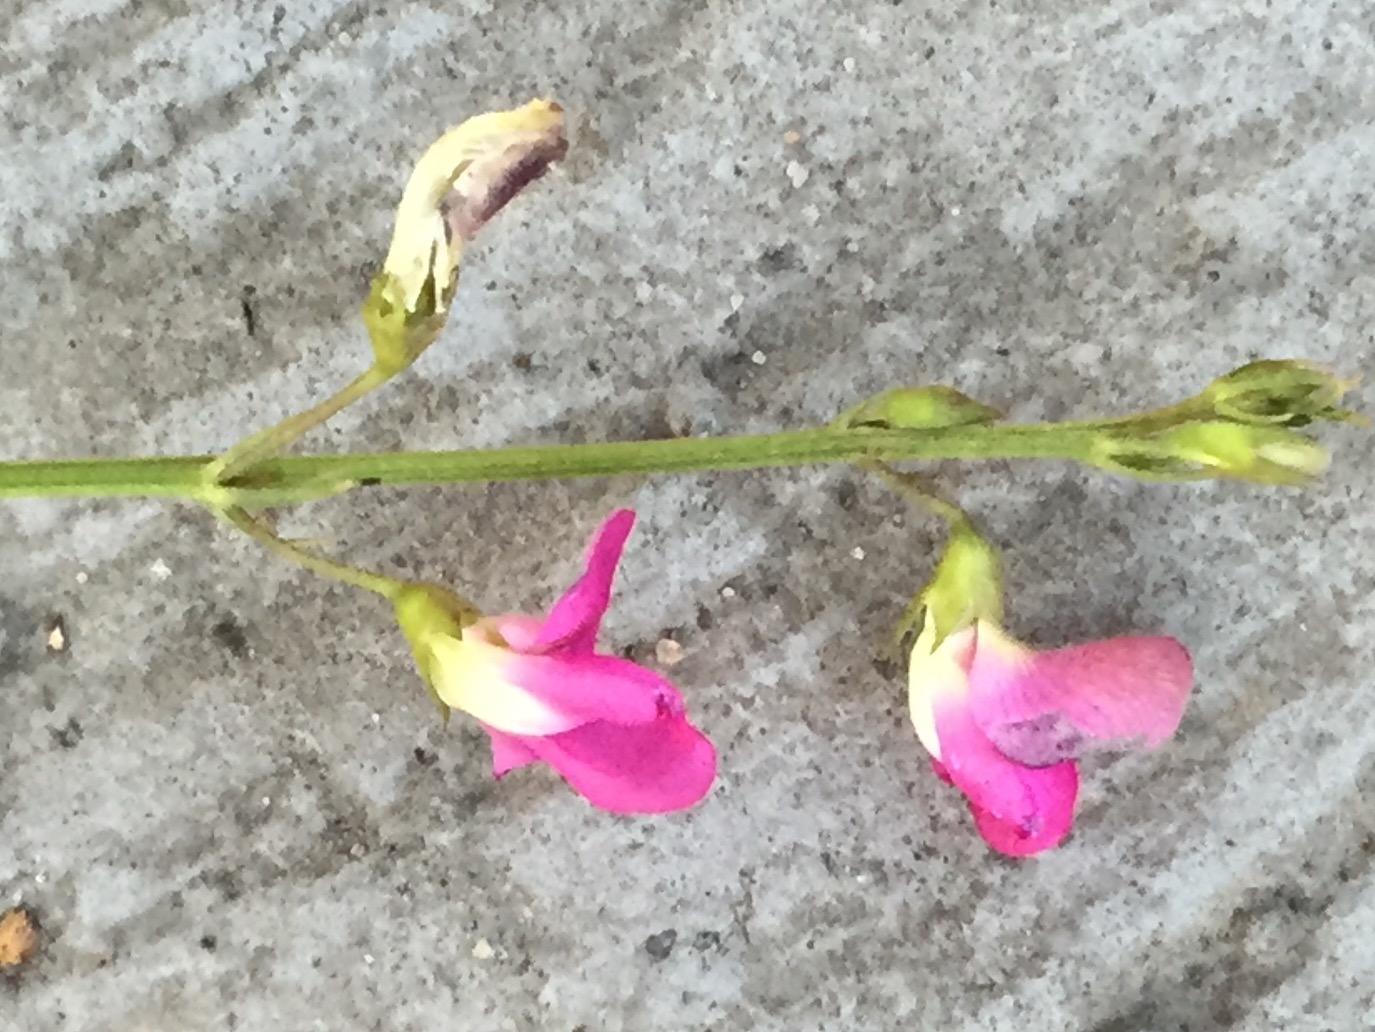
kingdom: Plantae
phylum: Tracheophyta
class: Magnoliopsida
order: Fabales
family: Fabaceae
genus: Tephrosia
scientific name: Tephrosia capensis
